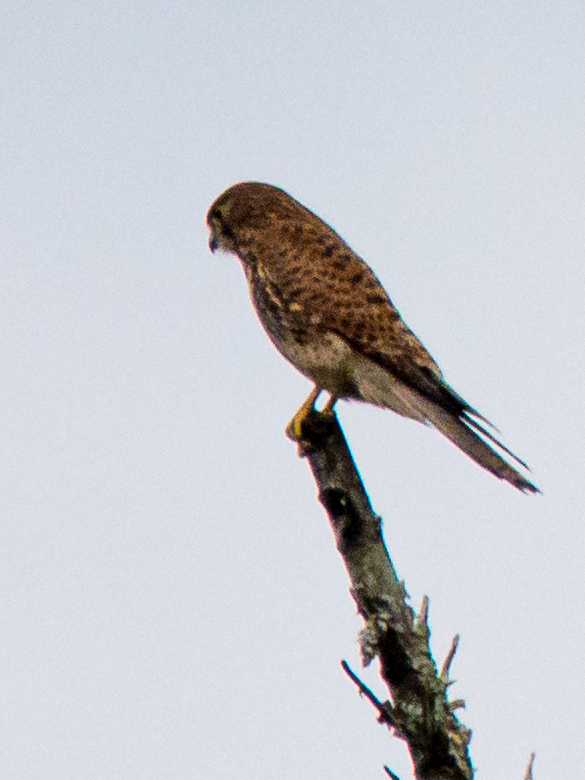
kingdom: Animalia
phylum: Chordata
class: Aves
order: Falconiformes
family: Falconidae
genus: Falco
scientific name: Falco moluccensis
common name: Spotted kestrel
